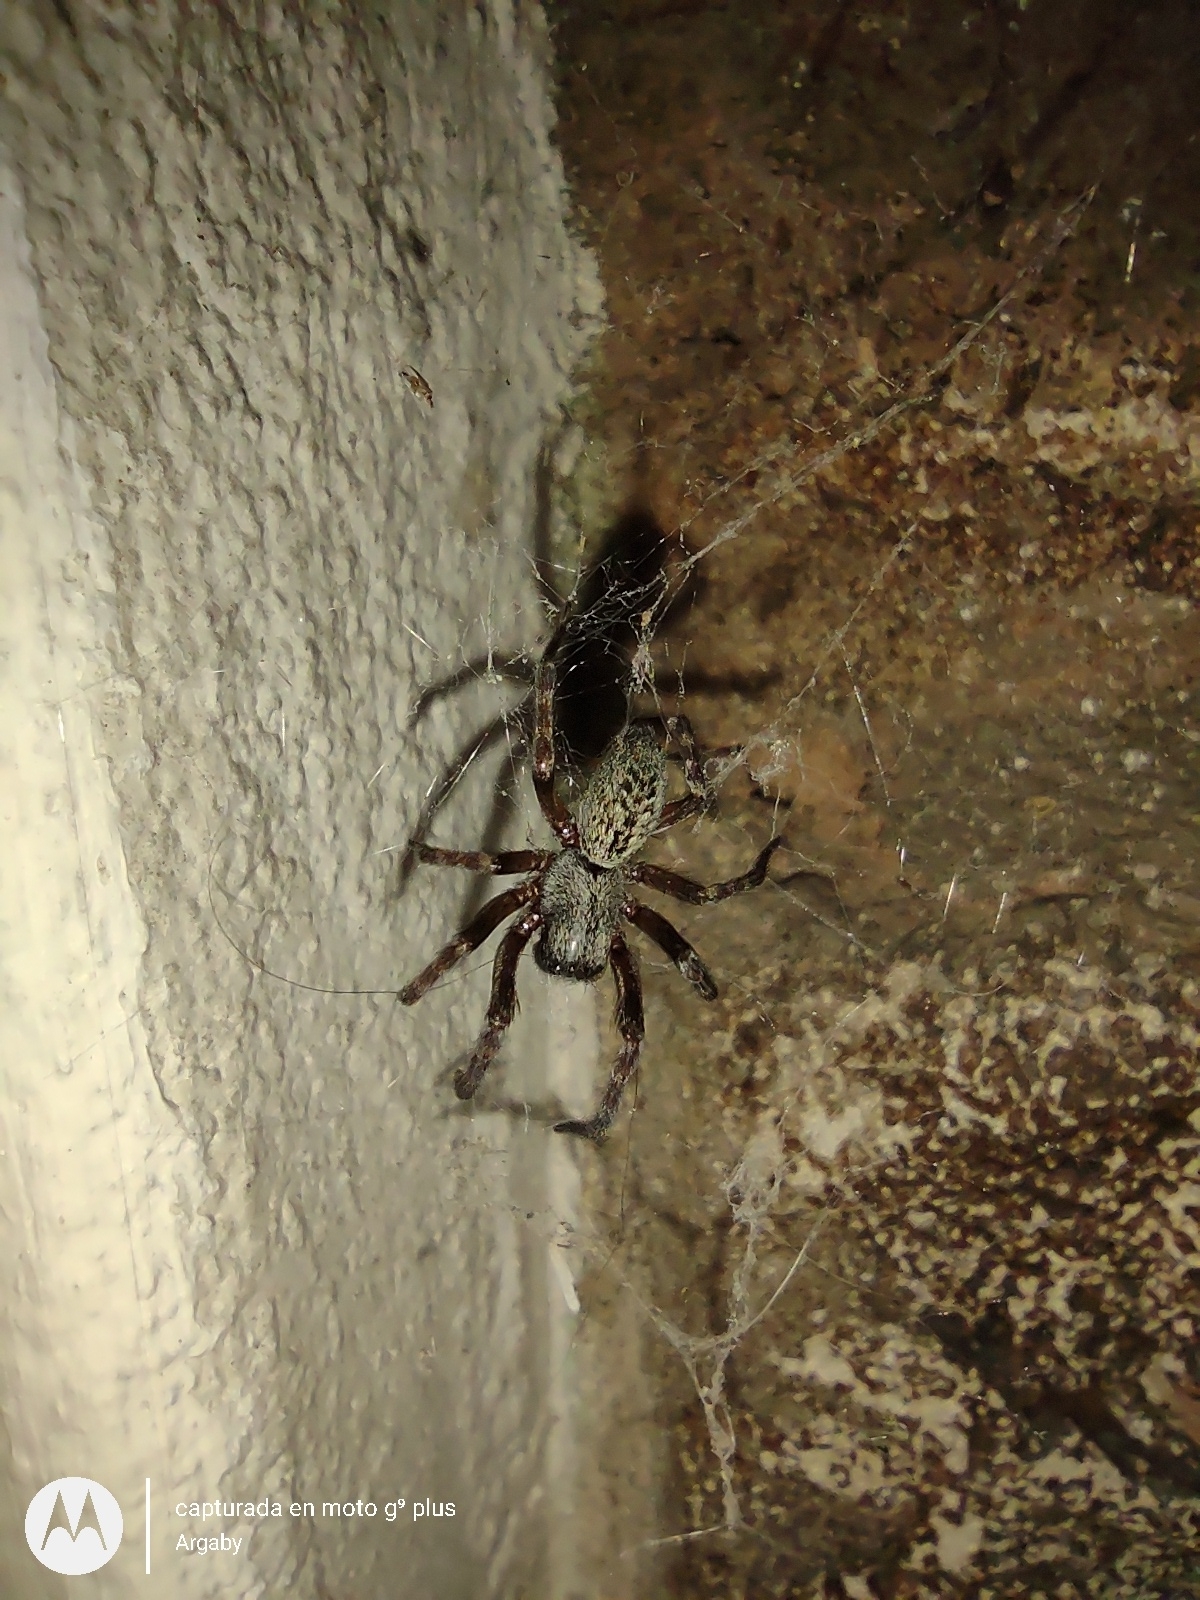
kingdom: Animalia
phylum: Arthropoda
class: Arachnida
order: Araneae
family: Desidae
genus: Badumna
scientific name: Badumna longinqua
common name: Gray house spider
